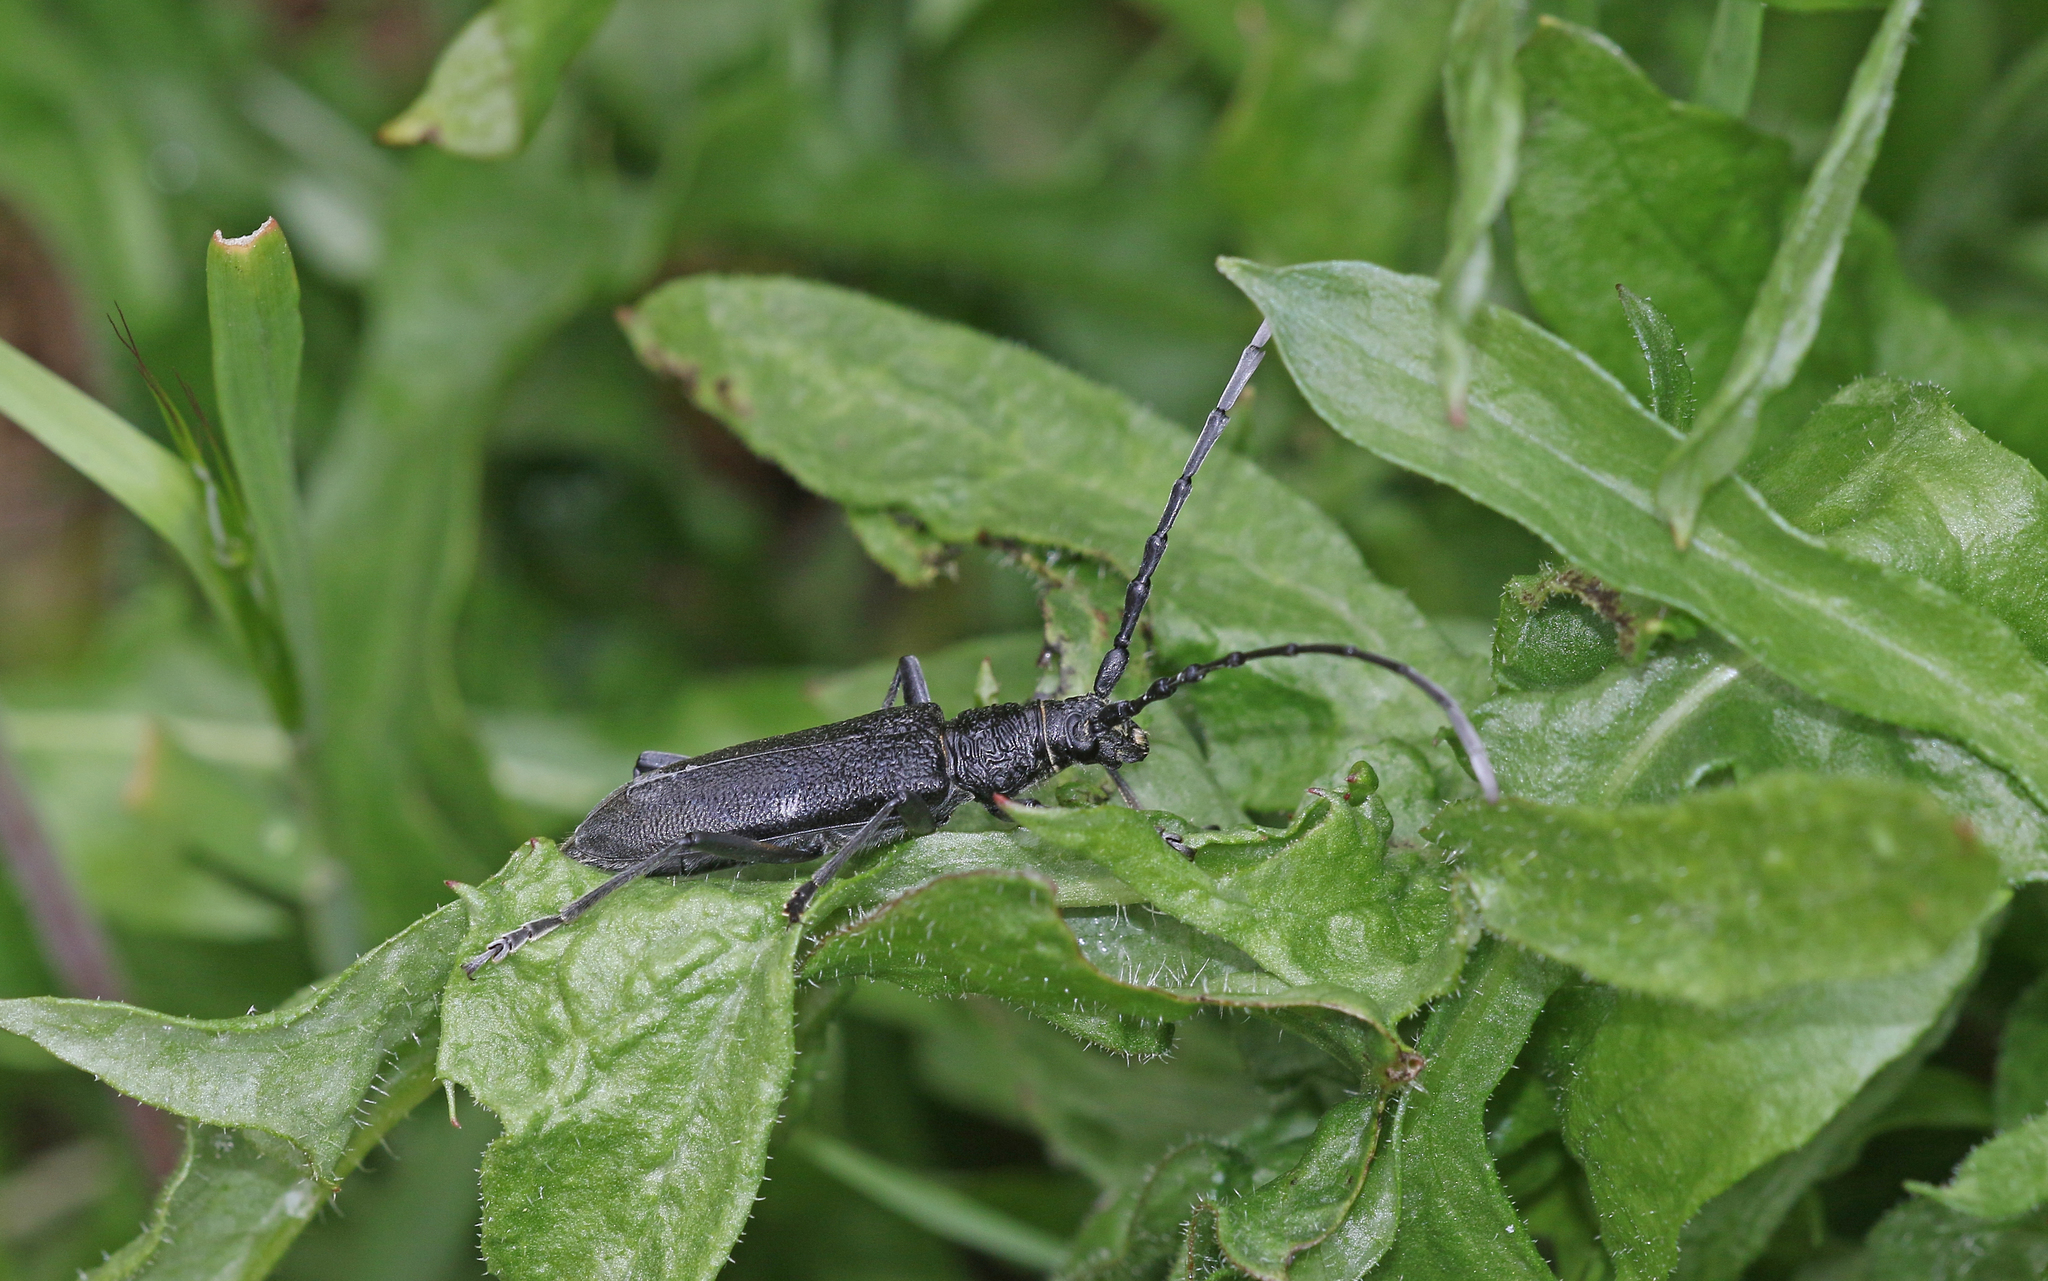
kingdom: Animalia
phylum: Arthropoda
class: Insecta
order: Coleoptera
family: Cerambycidae
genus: Cerambyx
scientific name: Cerambyx scopolii
